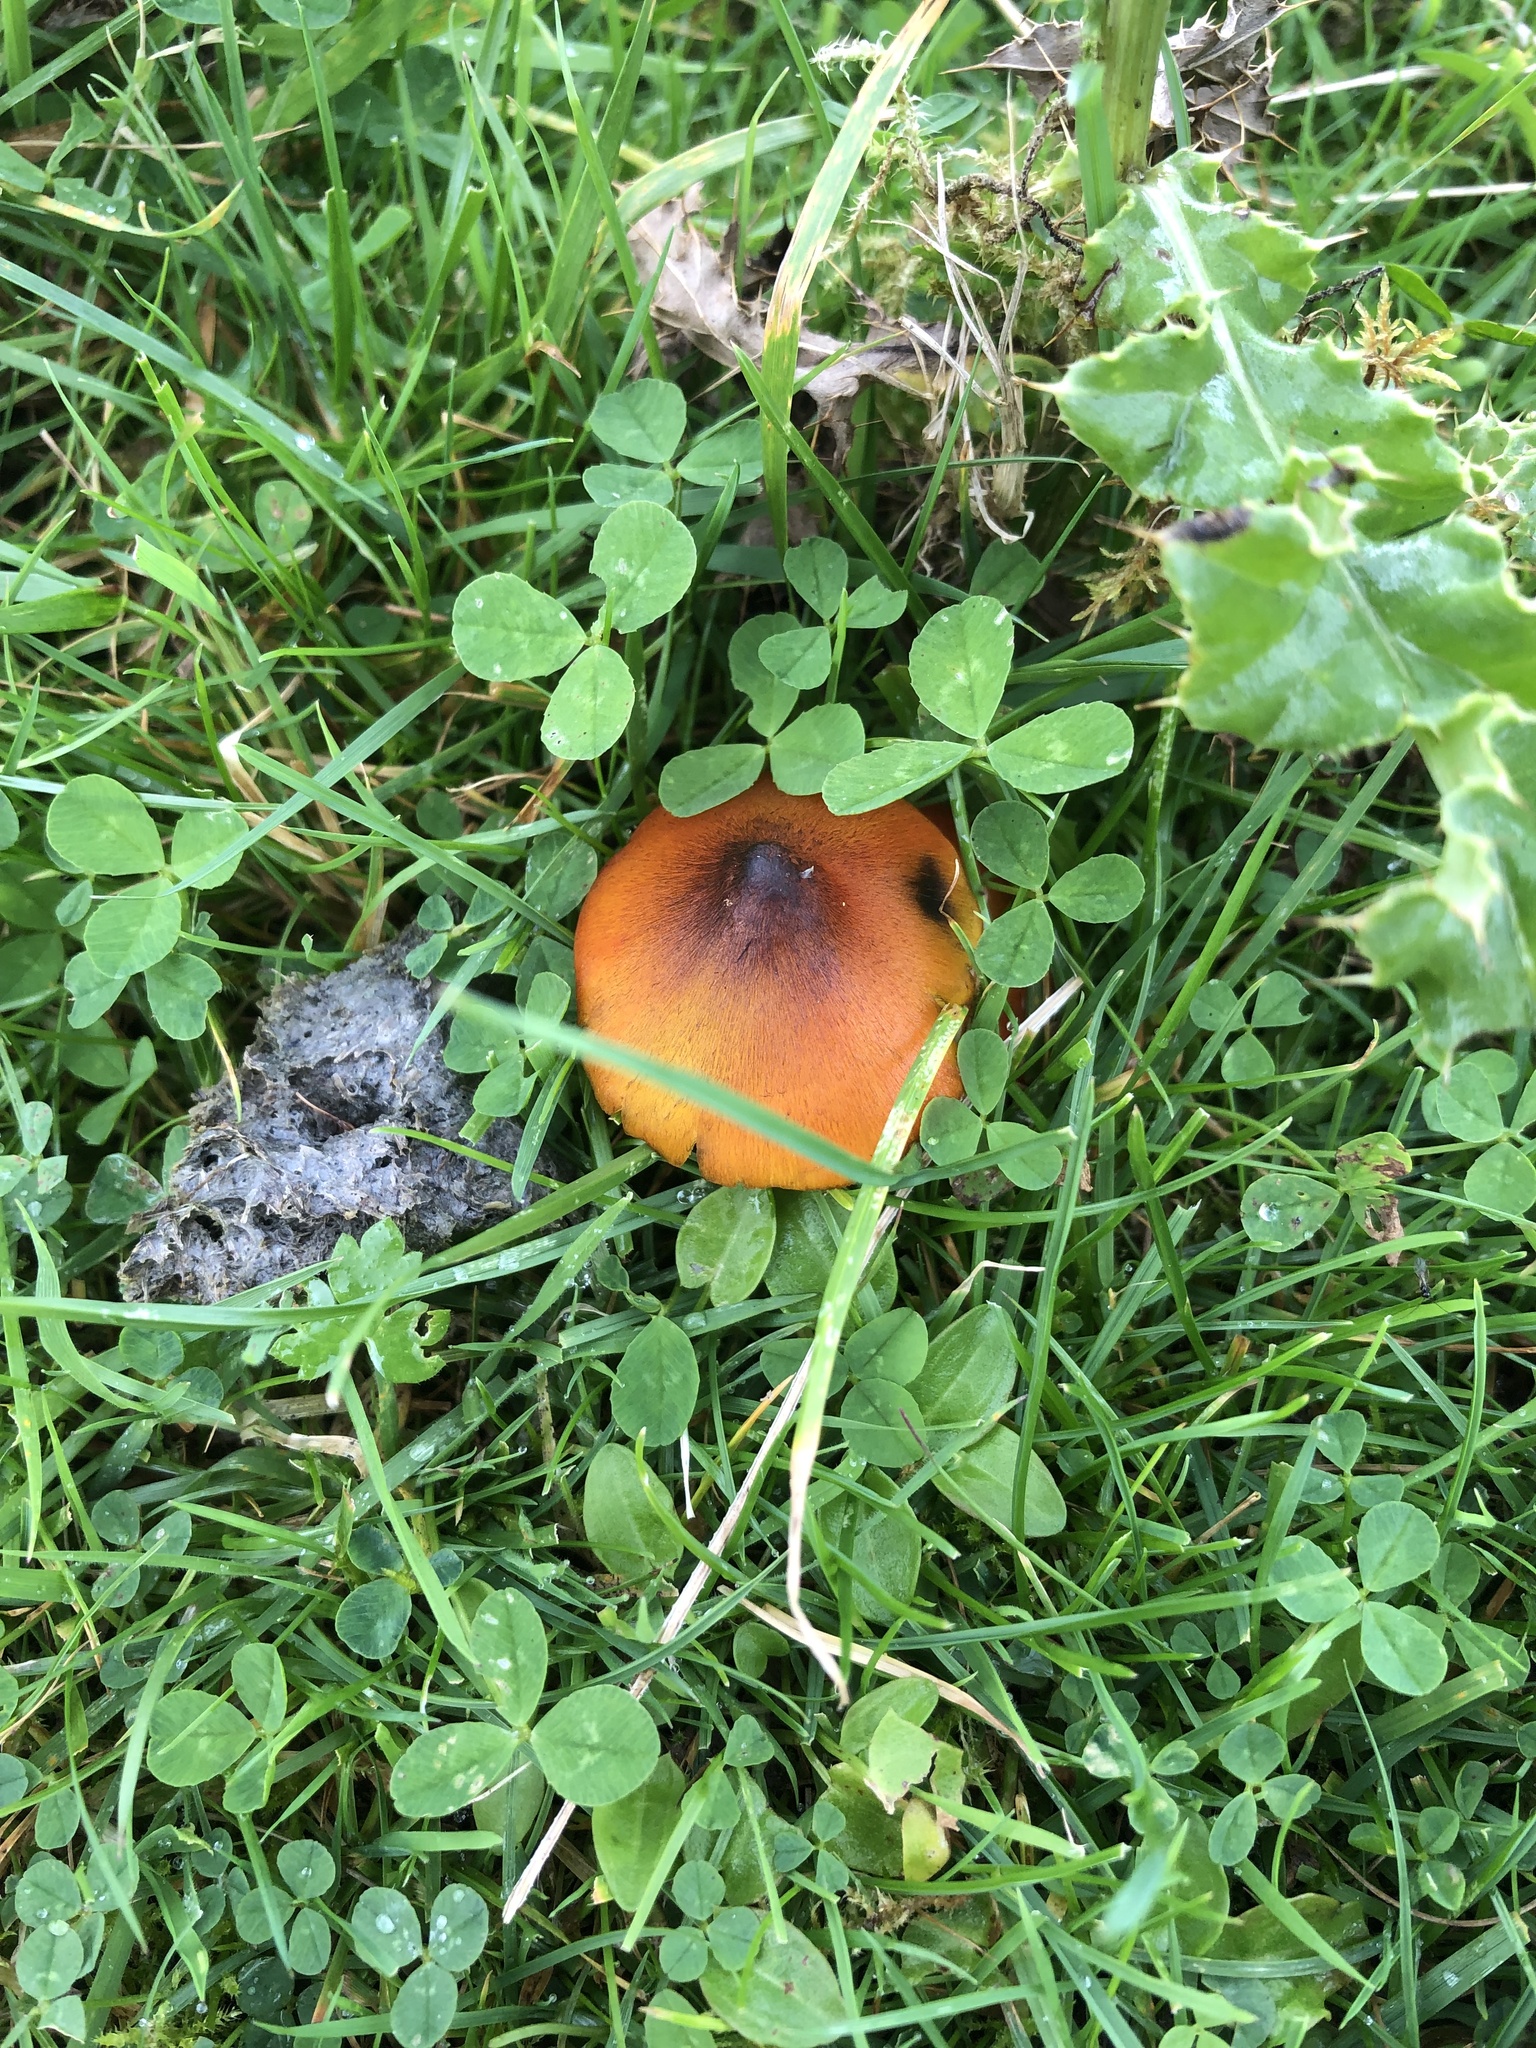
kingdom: Fungi
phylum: Basidiomycota
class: Agaricomycetes
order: Agaricales
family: Hygrophoraceae
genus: Hygrocybe
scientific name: Hygrocybe conica
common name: Blackening wax-cap
